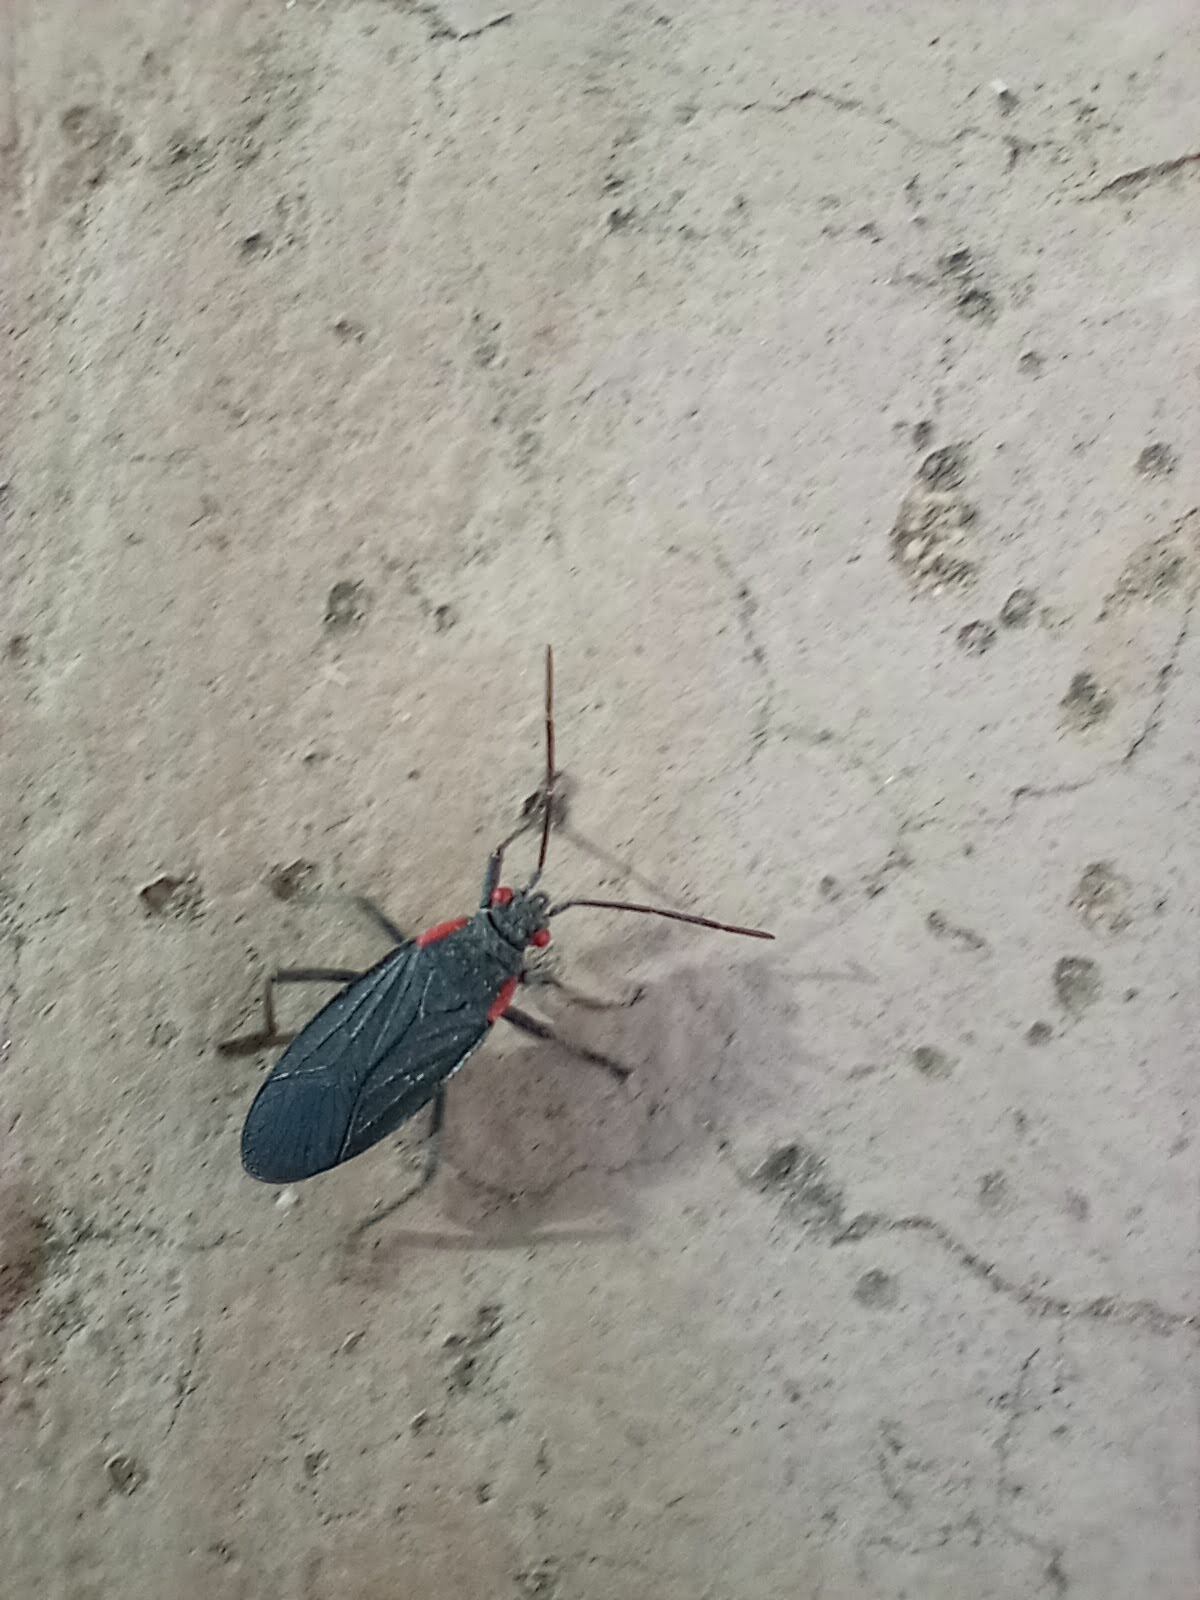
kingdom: Animalia
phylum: Arthropoda
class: Insecta
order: Hemiptera
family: Rhopalidae
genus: Jadera
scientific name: Jadera haematoloma
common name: Red-shouldered bug
